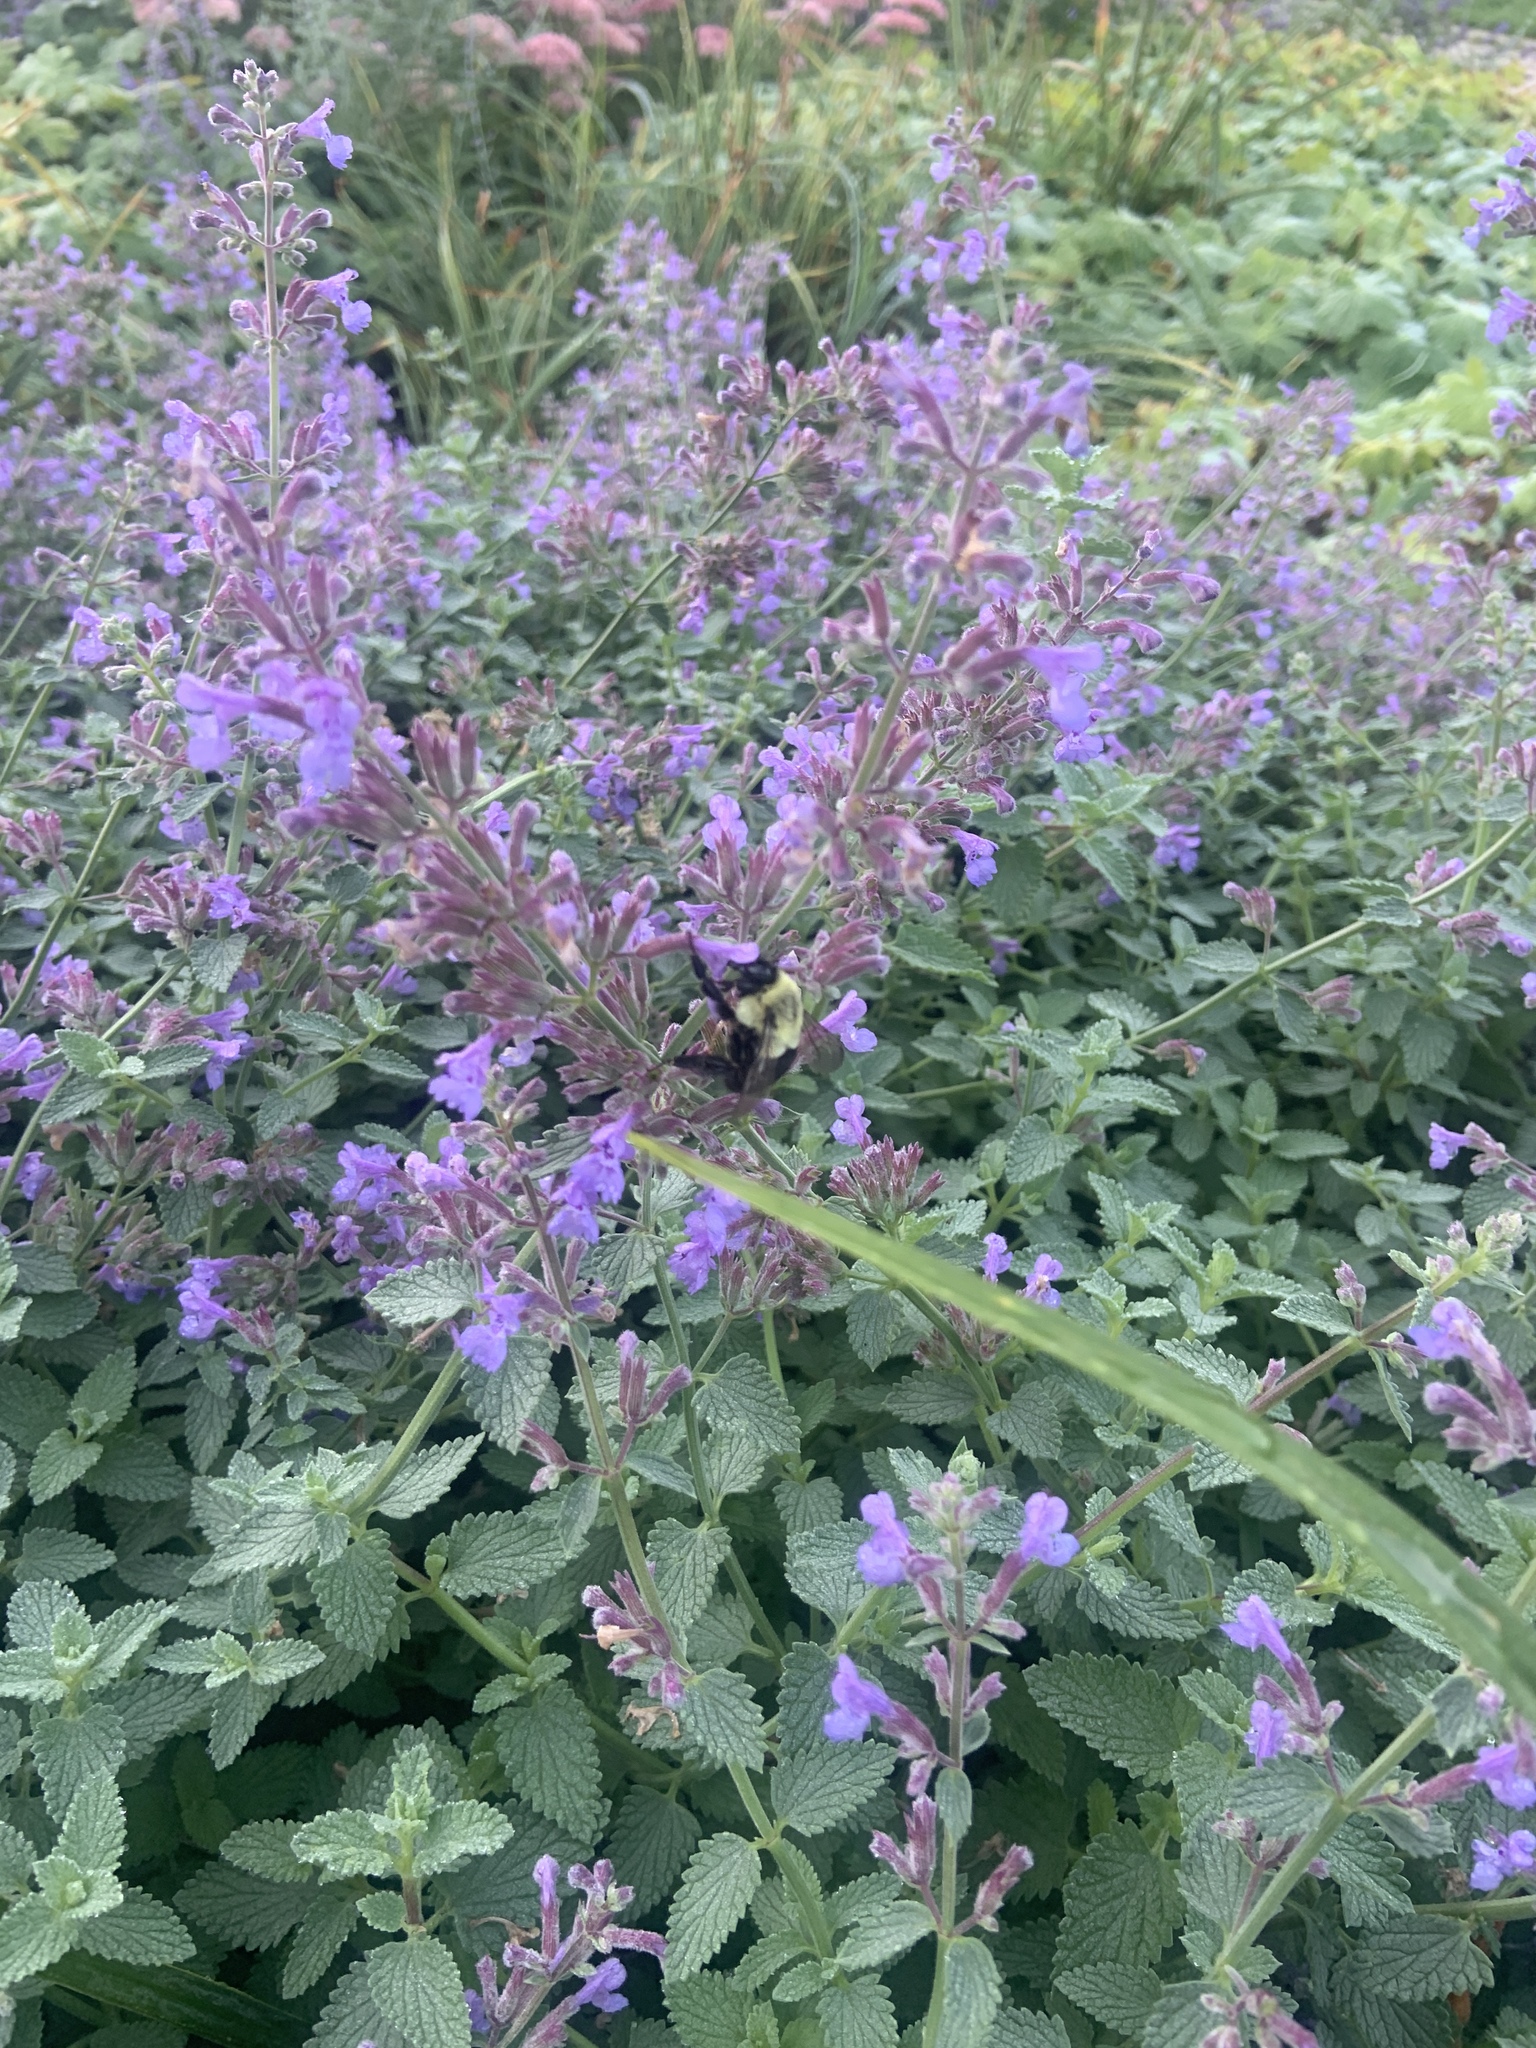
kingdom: Animalia
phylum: Arthropoda
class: Insecta
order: Hymenoptera
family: Apidae
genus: Bombus
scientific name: Bombus impatiens
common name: Common eastern bumble bee
